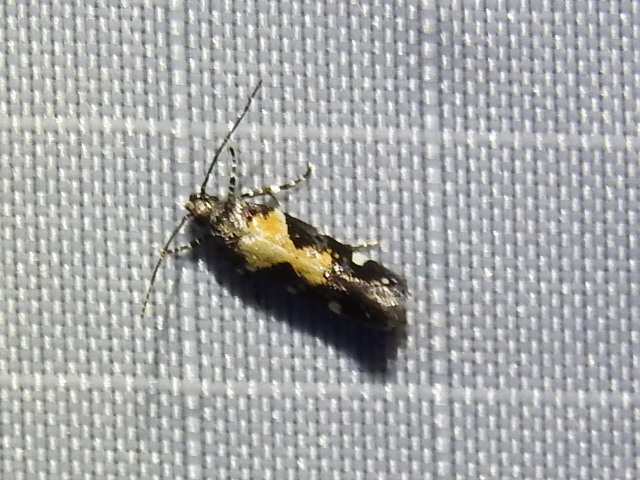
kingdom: Animalia
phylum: Arthropoda
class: Insecta
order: Lepidoptera
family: Gelechiidae
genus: Stegasta
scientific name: Stegasta bosqueella
